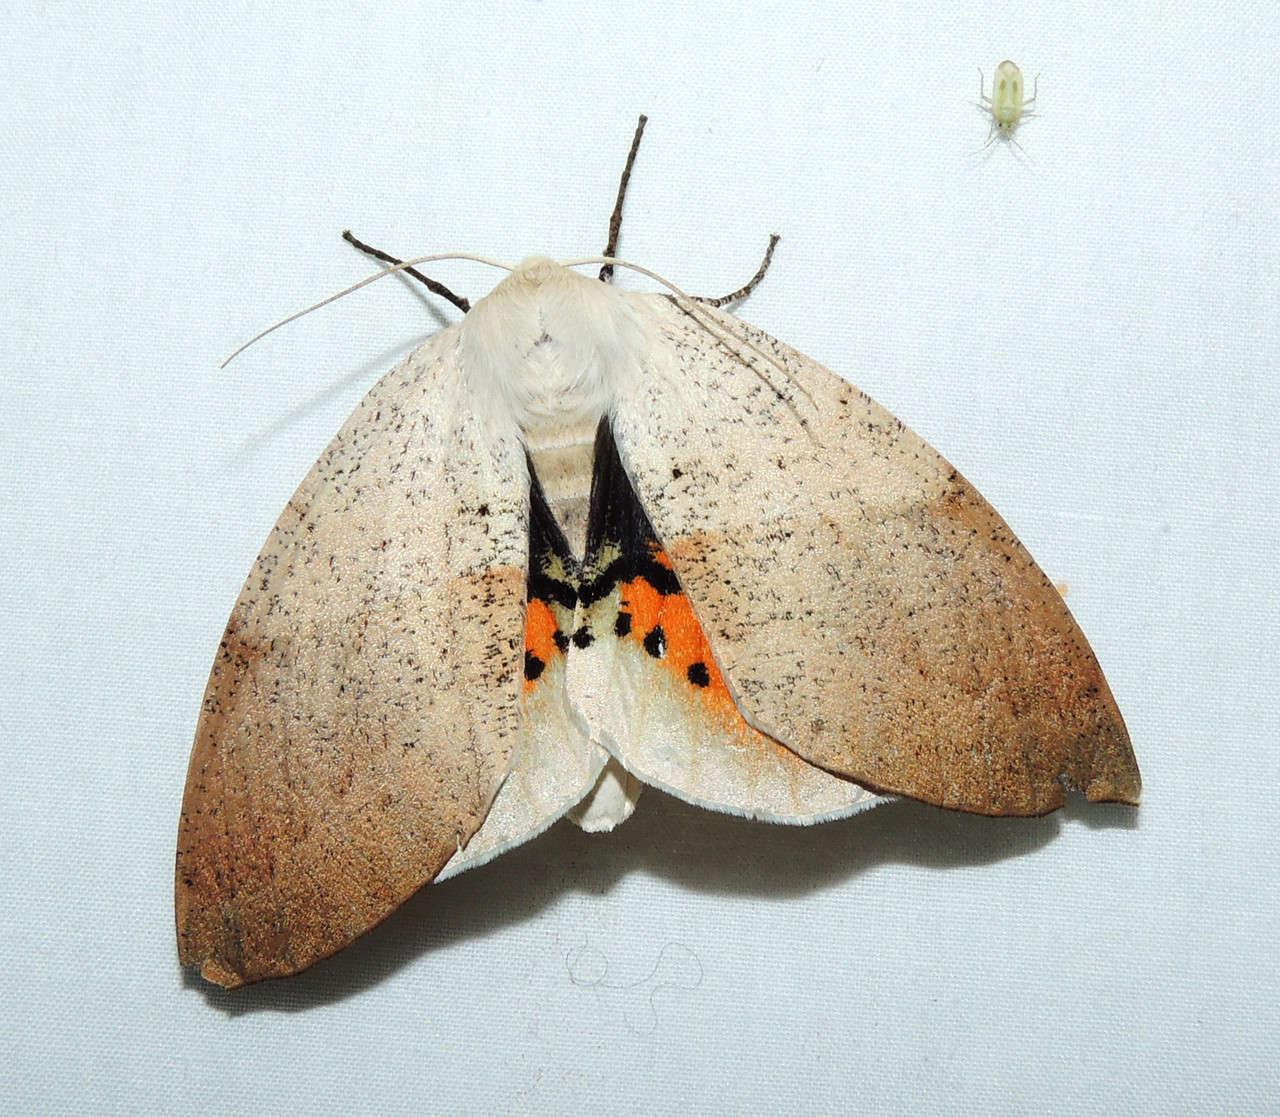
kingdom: Animalia
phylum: Arthropoda
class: Insecta
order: Lepidoptera
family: Geometridae
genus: Gastrophora
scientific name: Gastrophora henricaria
